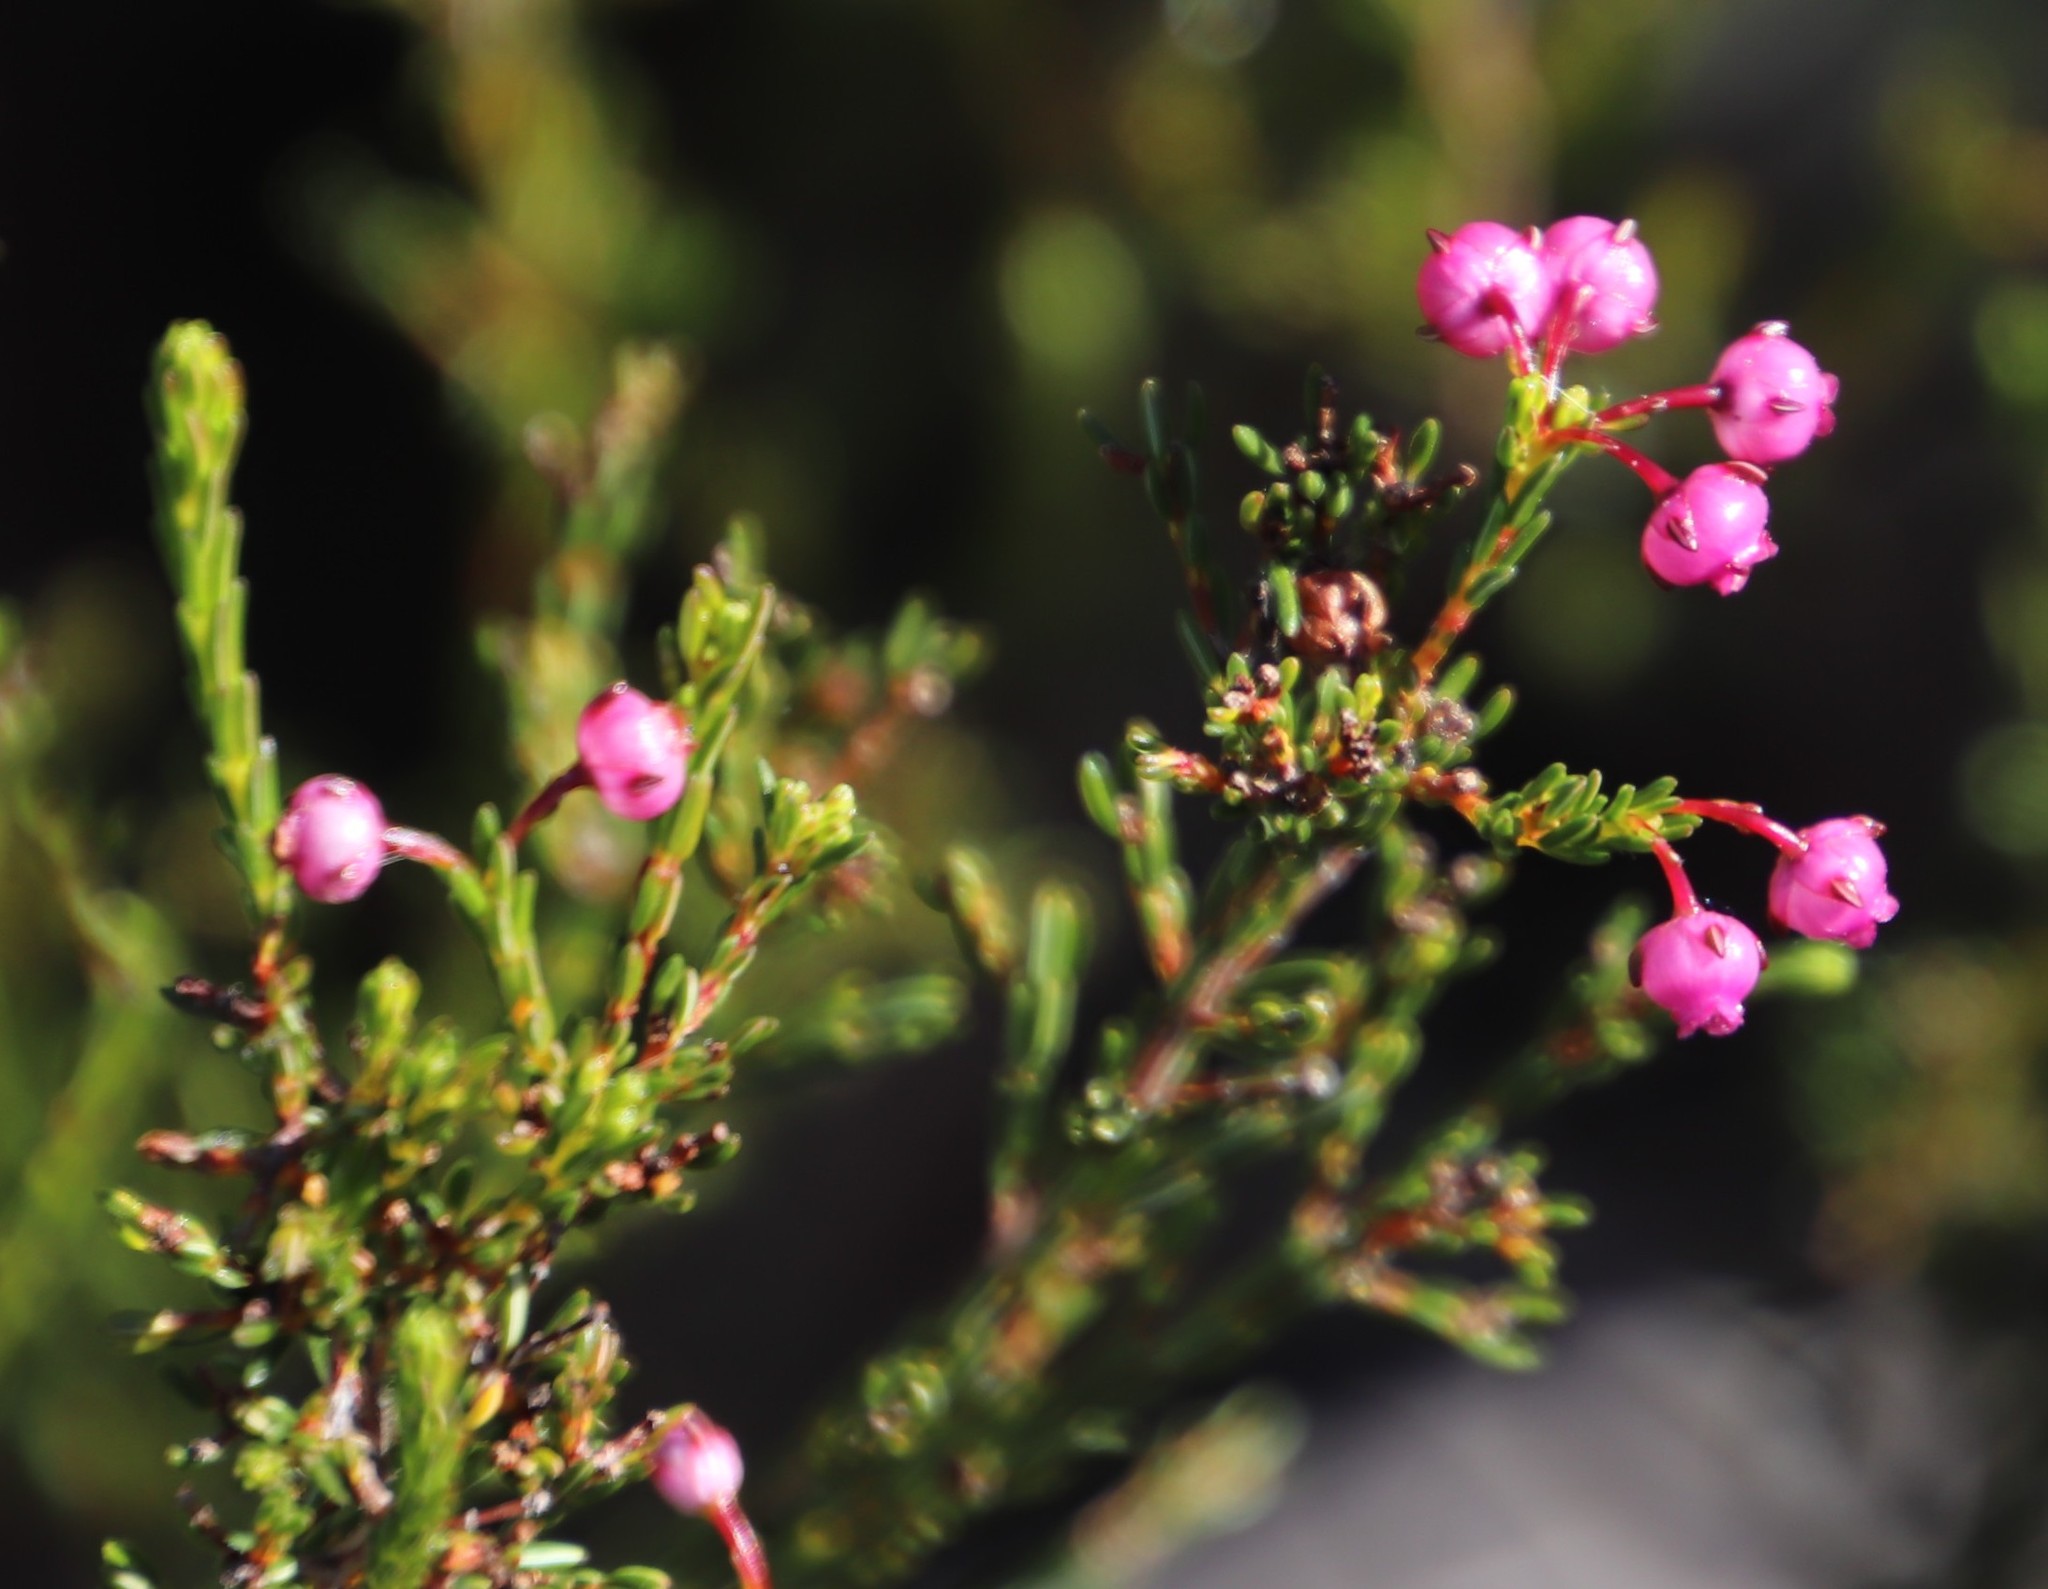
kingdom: Plantae
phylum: Tracheophyta
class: Magnoliopsida
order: Ericales
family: Ericaceae
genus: Erica
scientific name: Erica ferrea
